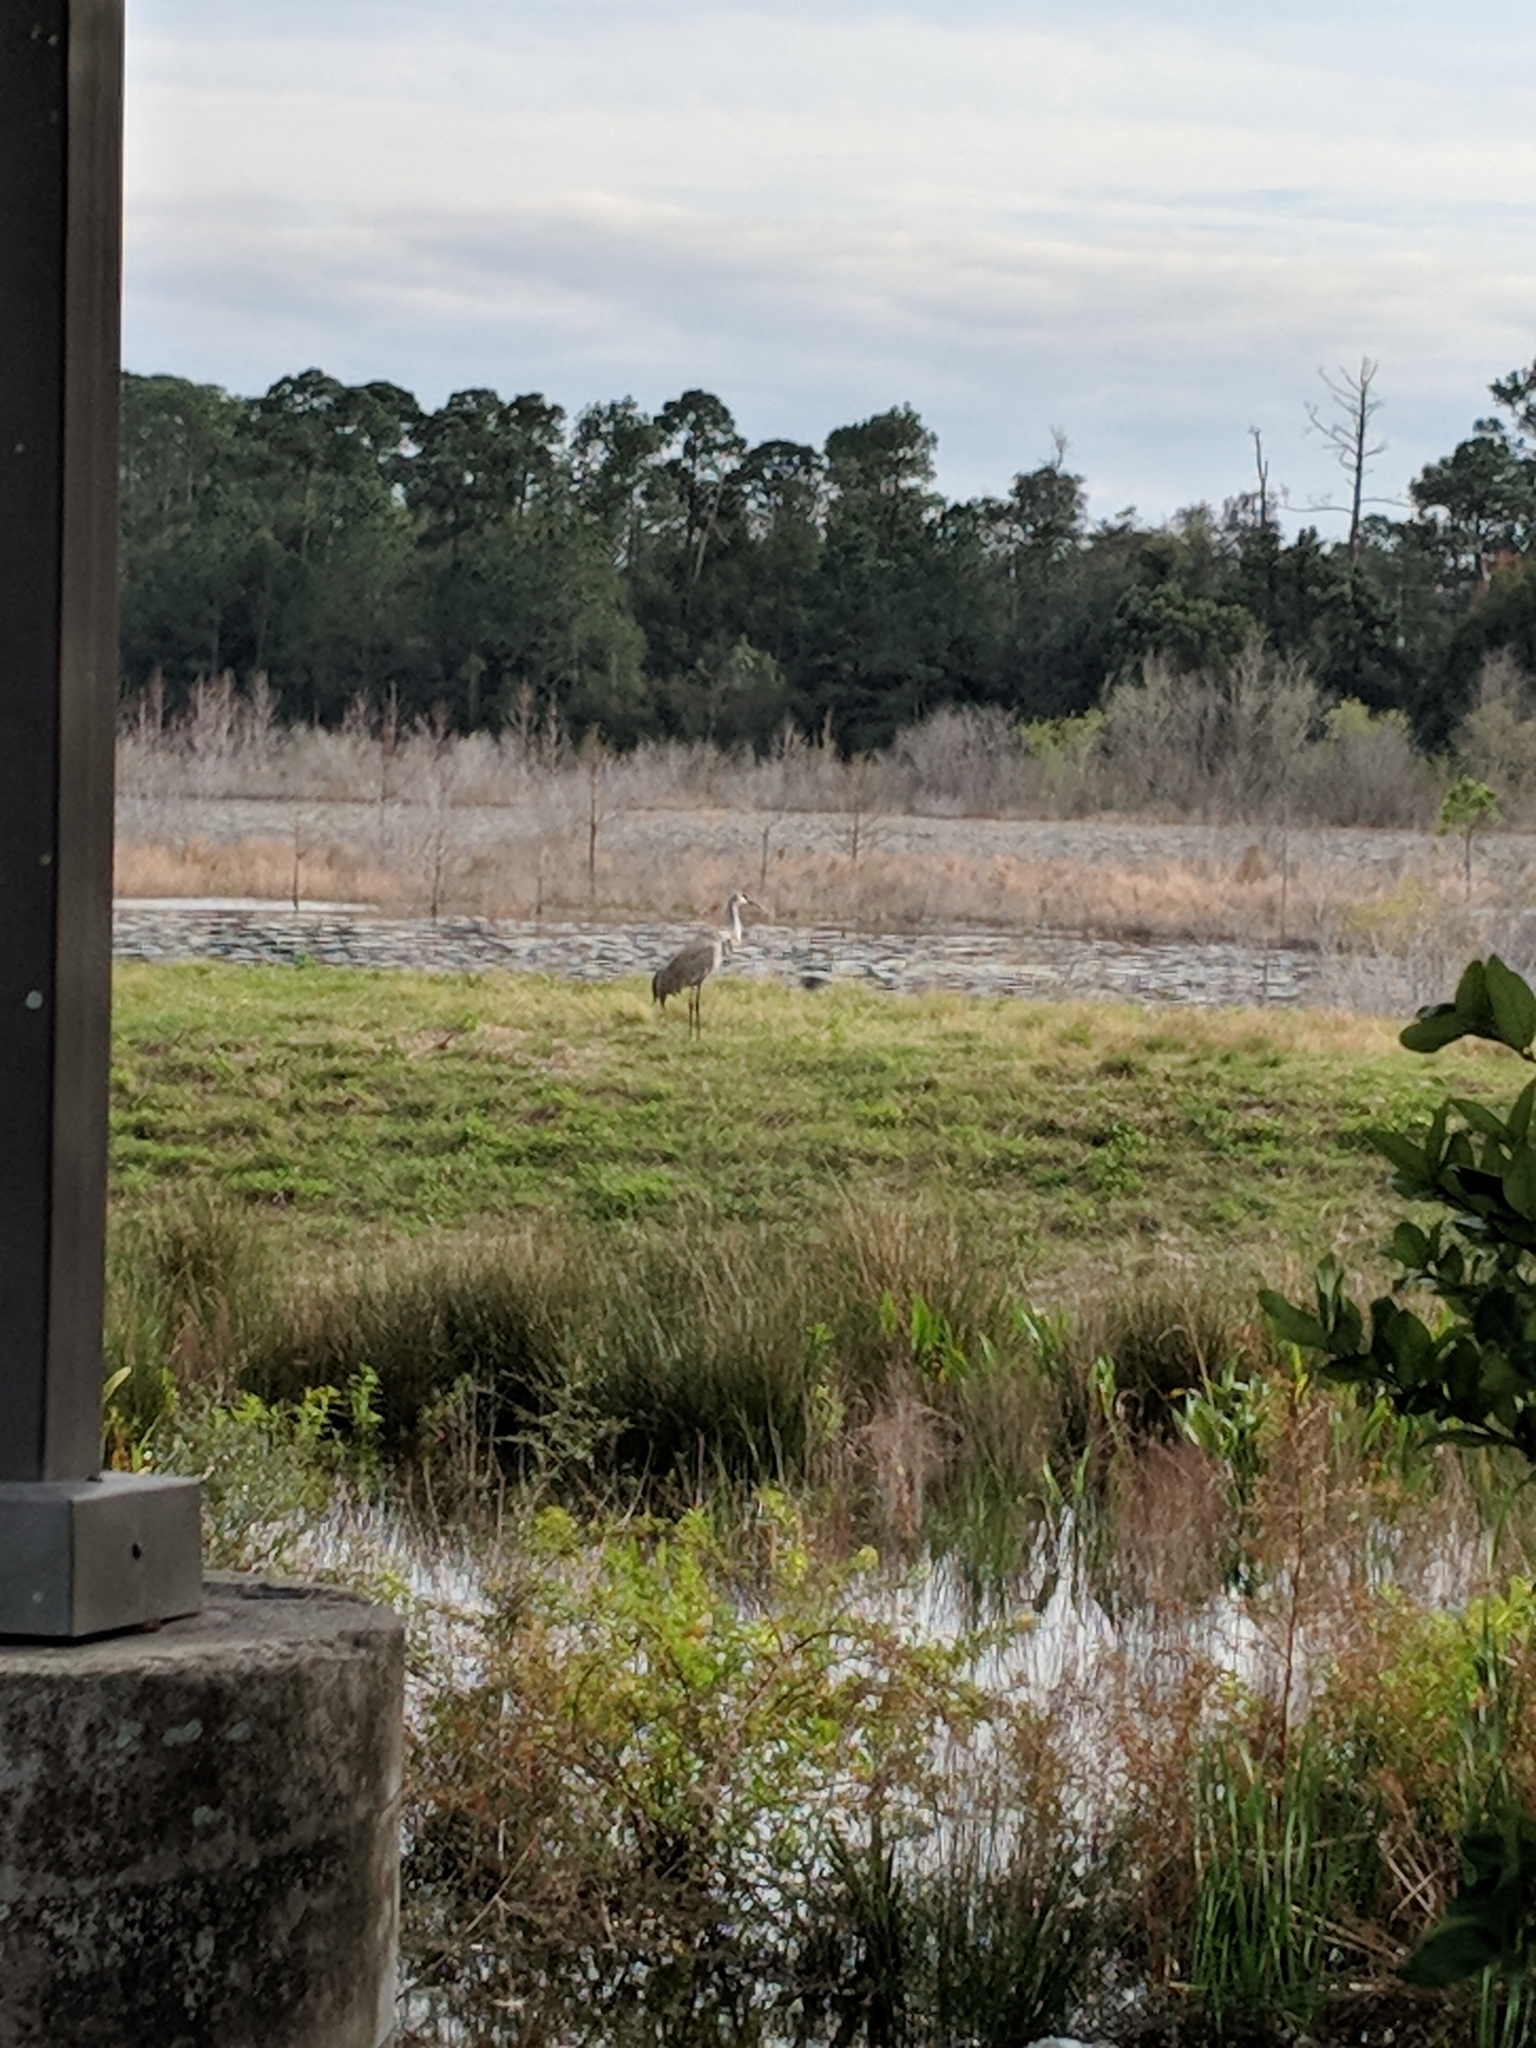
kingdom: Animalia
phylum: Chordata
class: Aves
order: Gruiformes
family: Gruidae
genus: Grus
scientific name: Grus canadensis
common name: Sandhill crane
